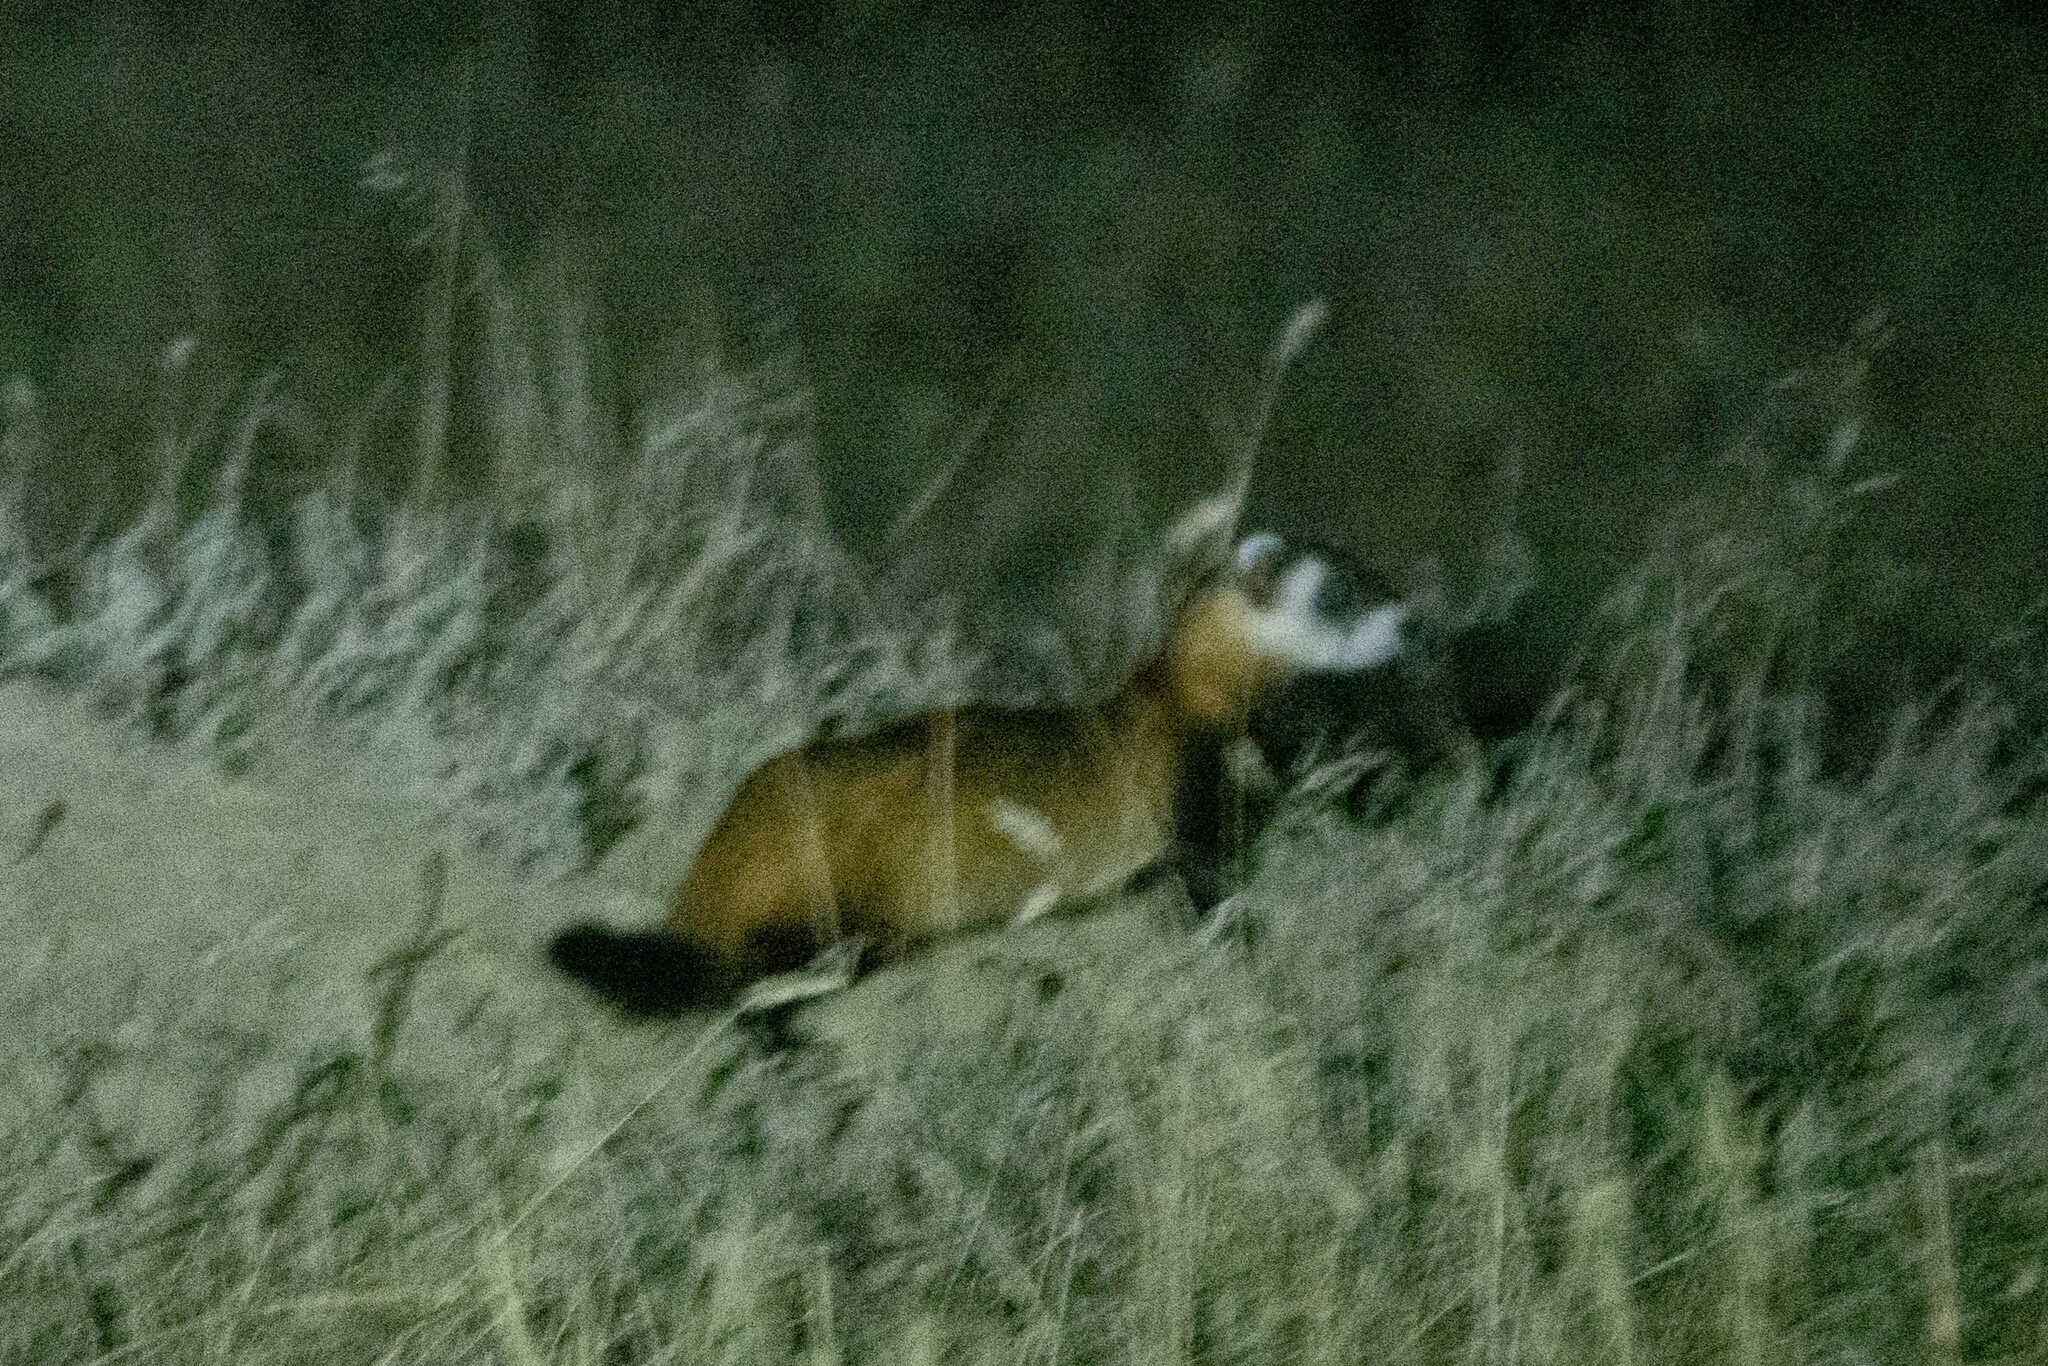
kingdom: Animalia
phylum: Chordata
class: Mammalia
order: Carnivora
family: Mustelidae
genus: Mustela
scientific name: Mustela eversmanii
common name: Steppe polecat
